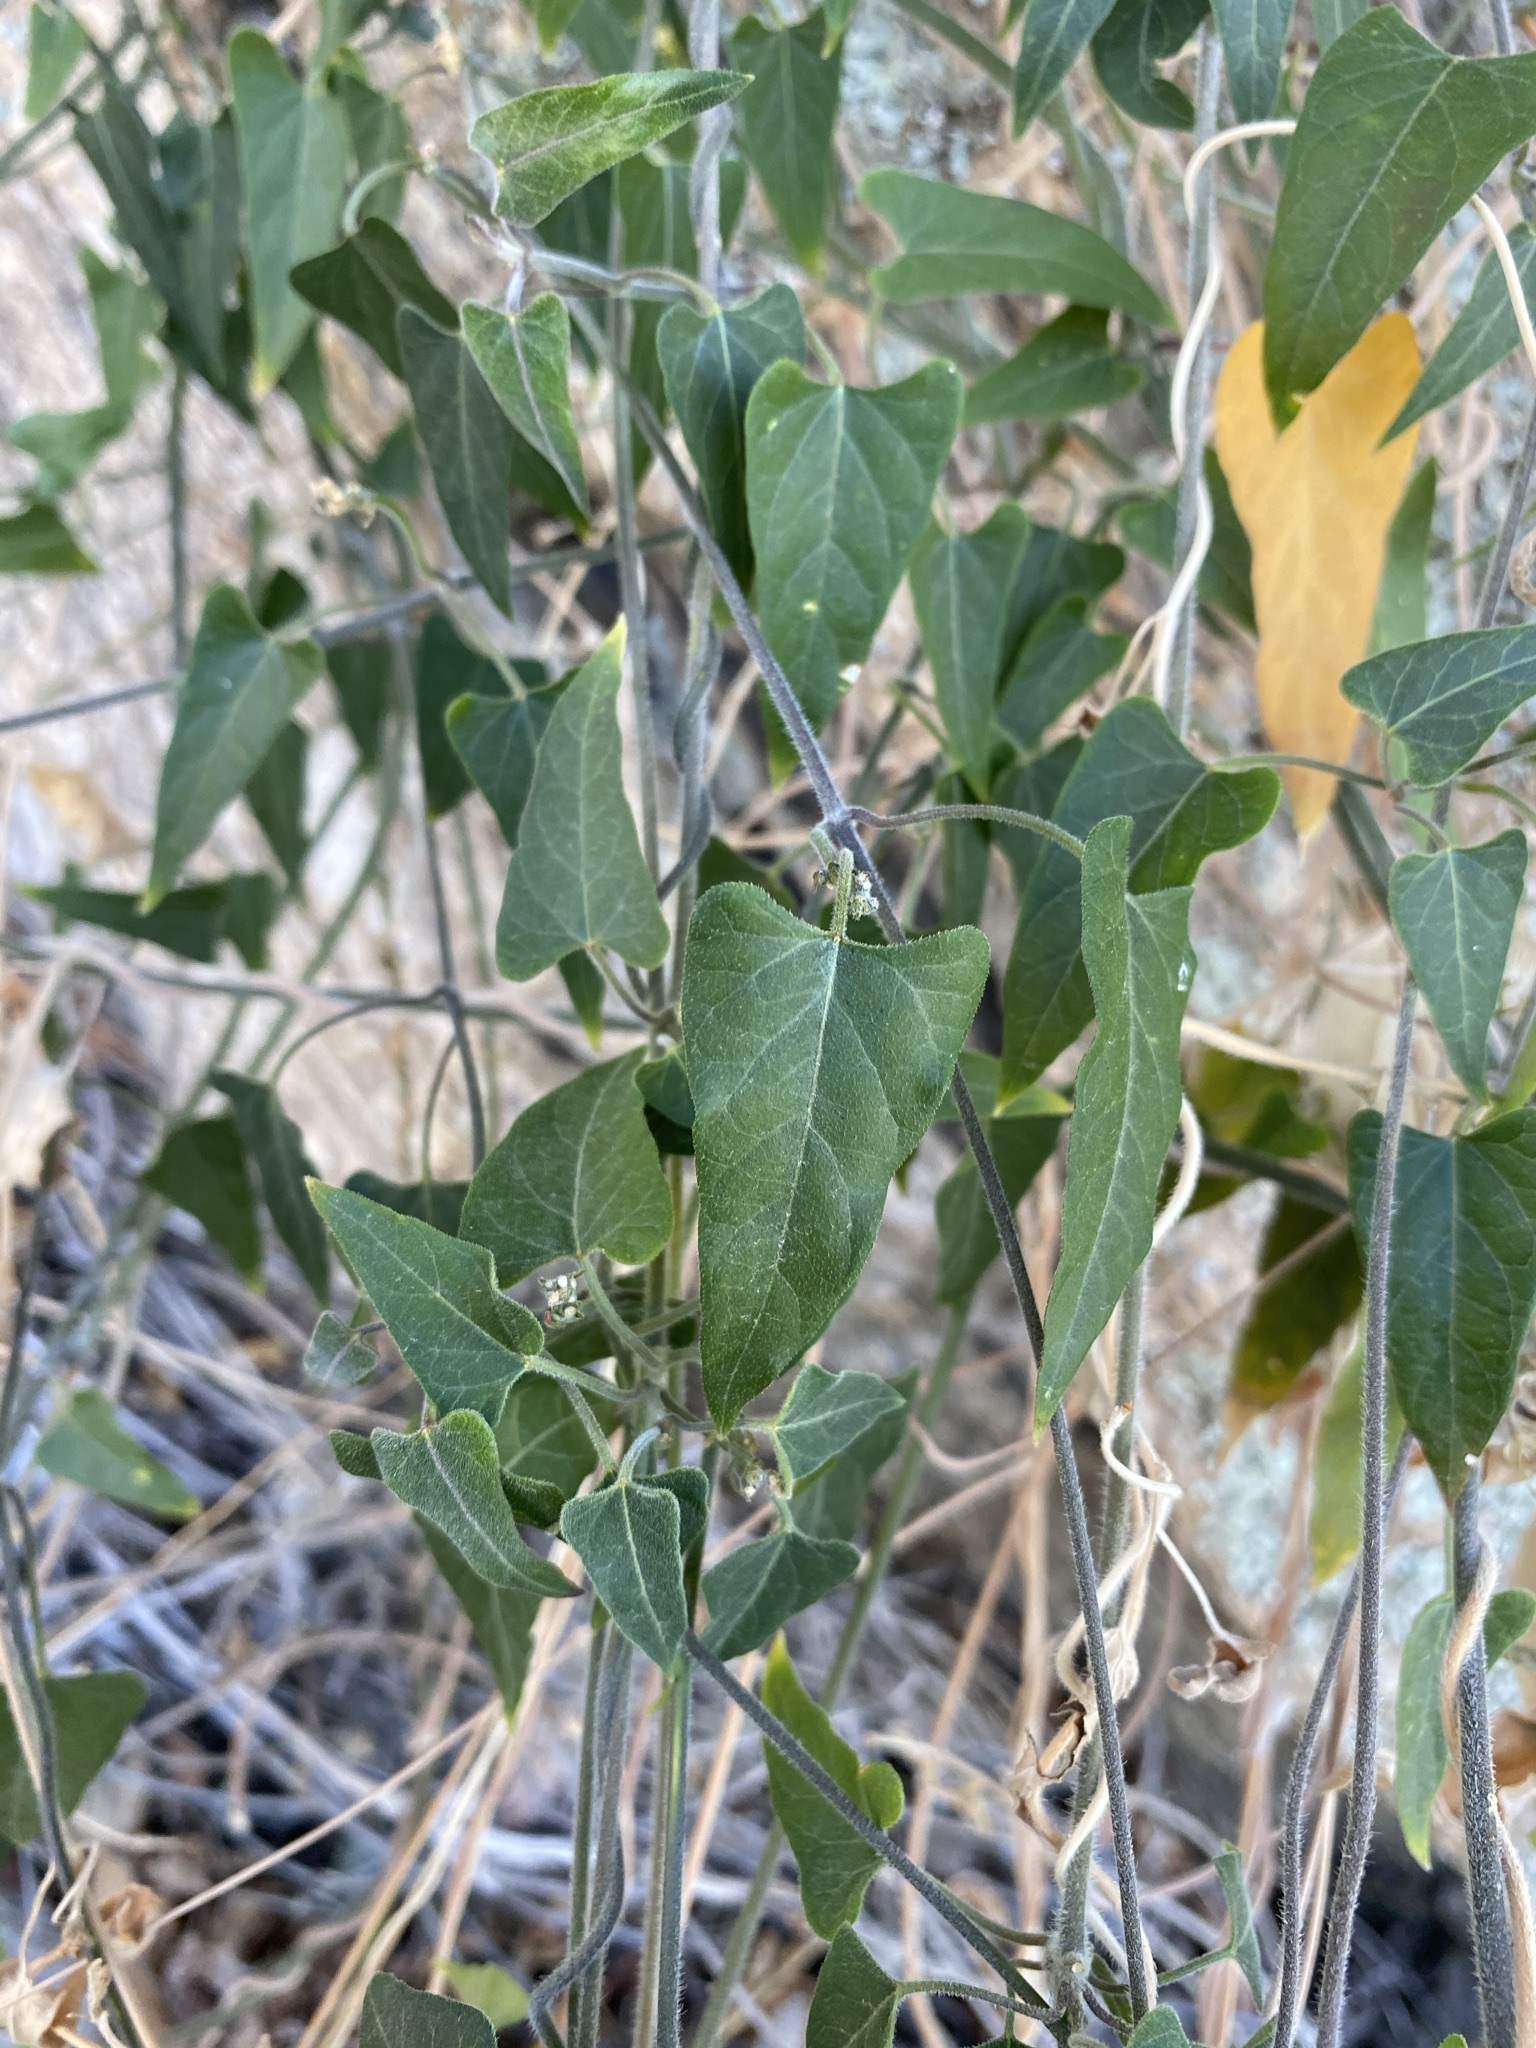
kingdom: Plantae
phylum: Tracheophyta
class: Magnoliopsida
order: Gentianales
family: Apocynaceae
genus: Gonolobus
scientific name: Gonolobus arizonicus
